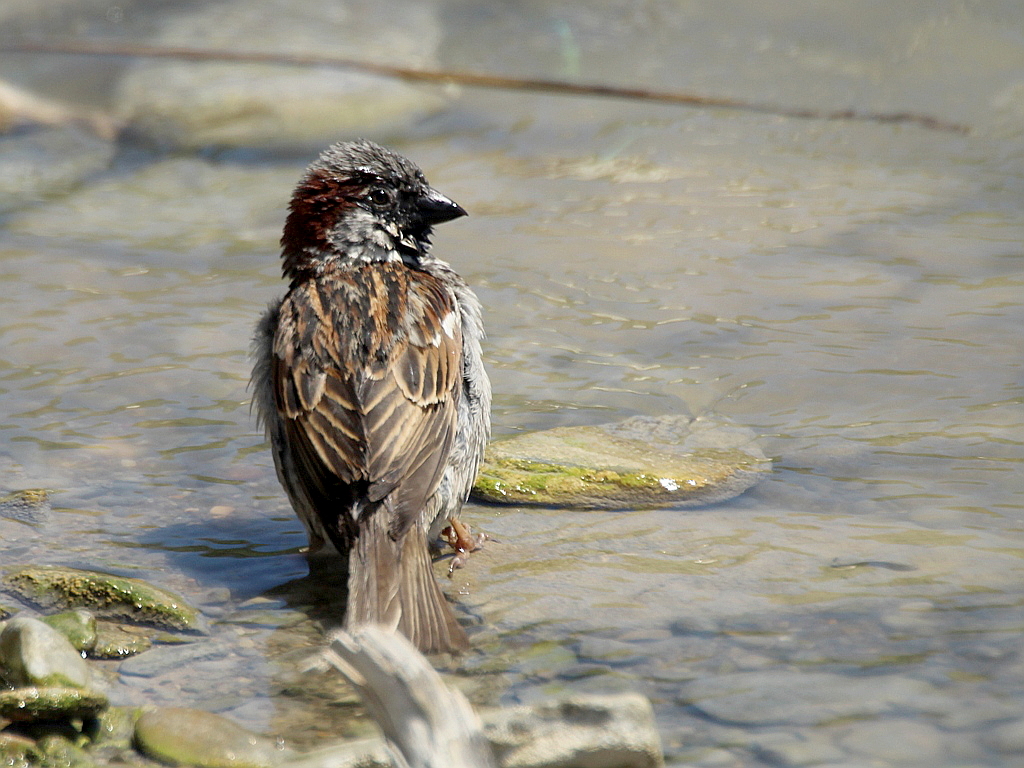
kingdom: Animalia
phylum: Chordata
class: Aves
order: Passeriformes
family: Passeridae
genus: Passer
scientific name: Passer domesticus
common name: House sparrow
